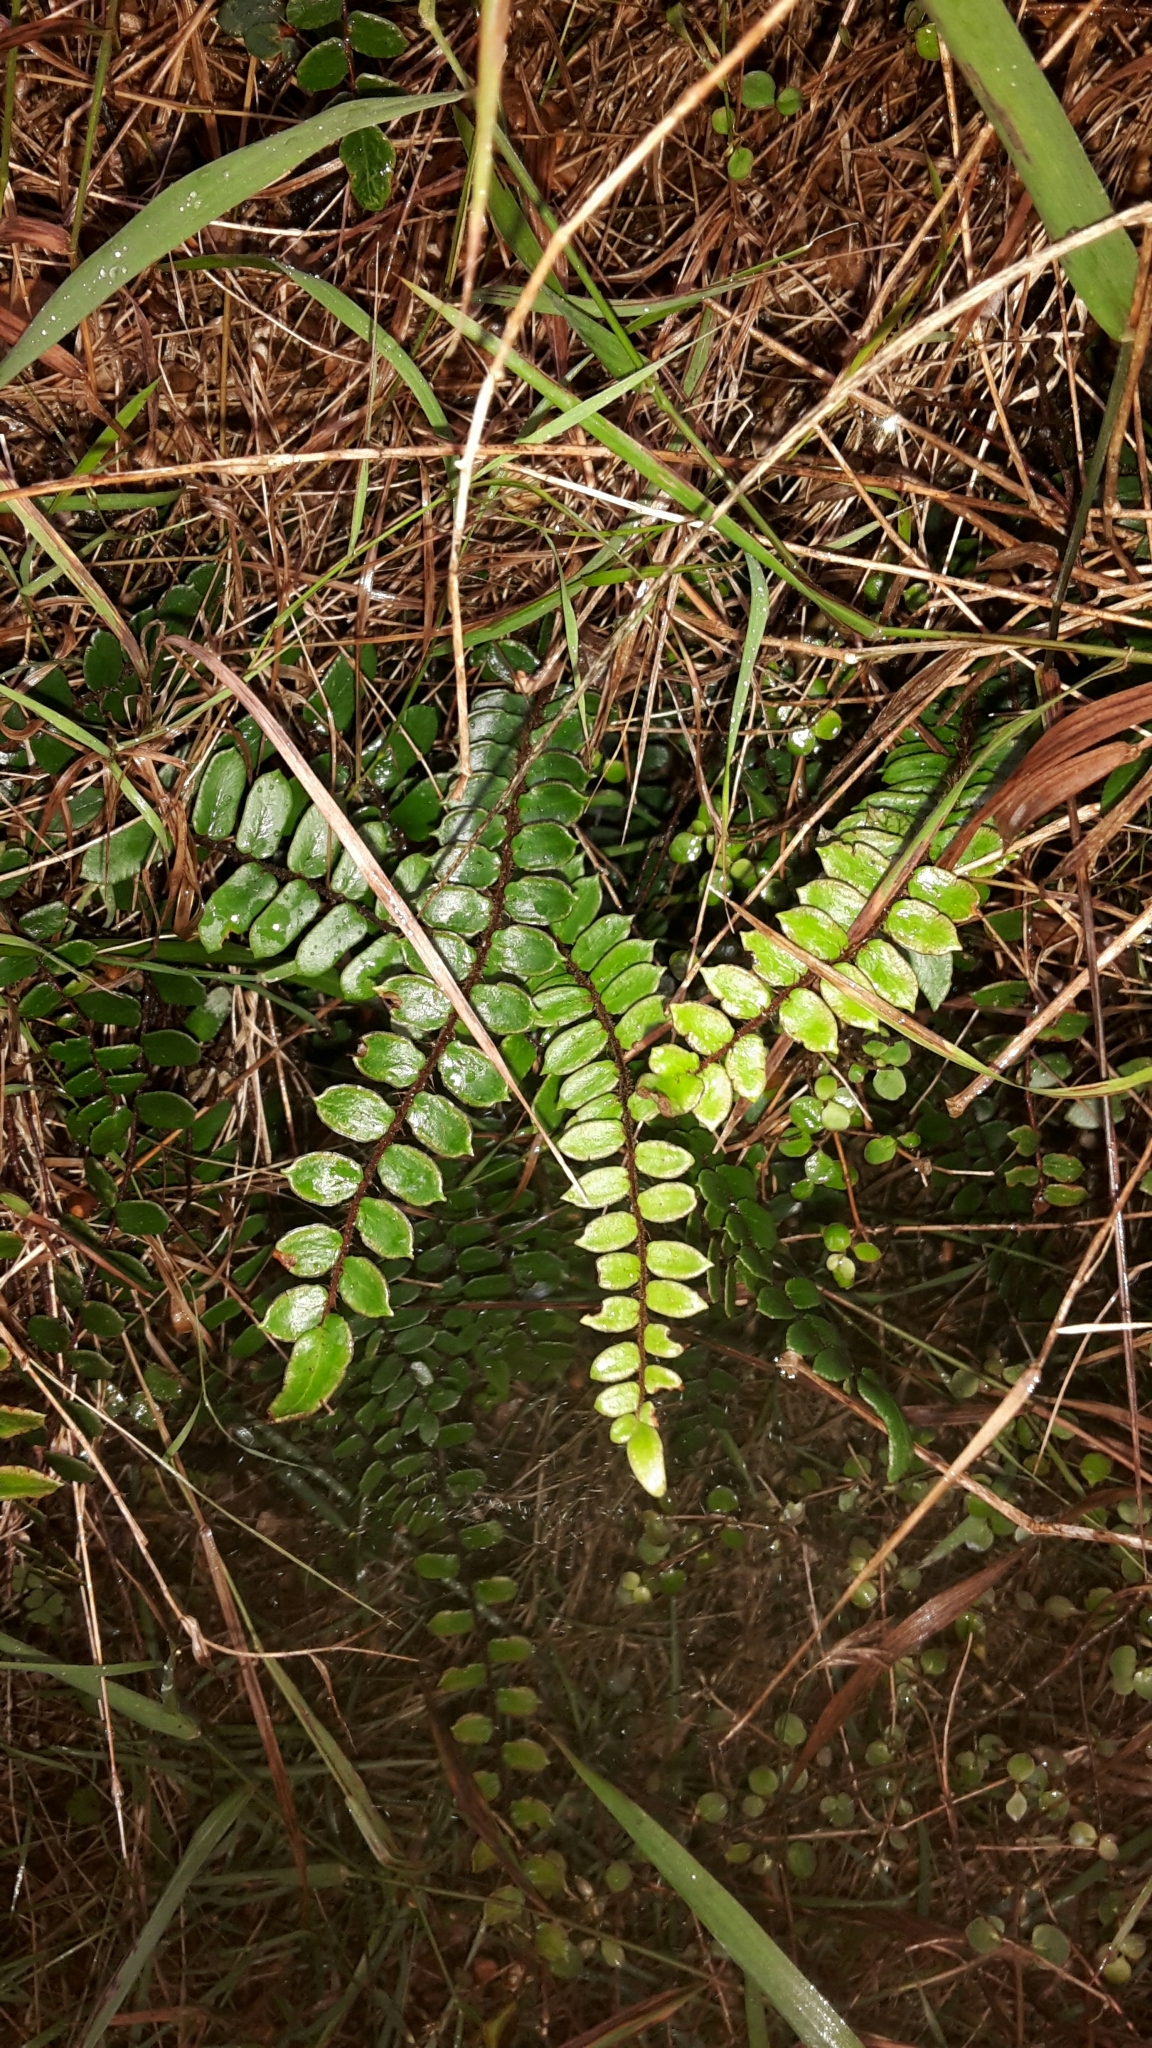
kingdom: Plantae
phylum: Tracheophyta
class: Polypodiopsida
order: Polypodiales
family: Pteridaceae
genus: Pellaea
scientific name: Pellaea rotundifolia
